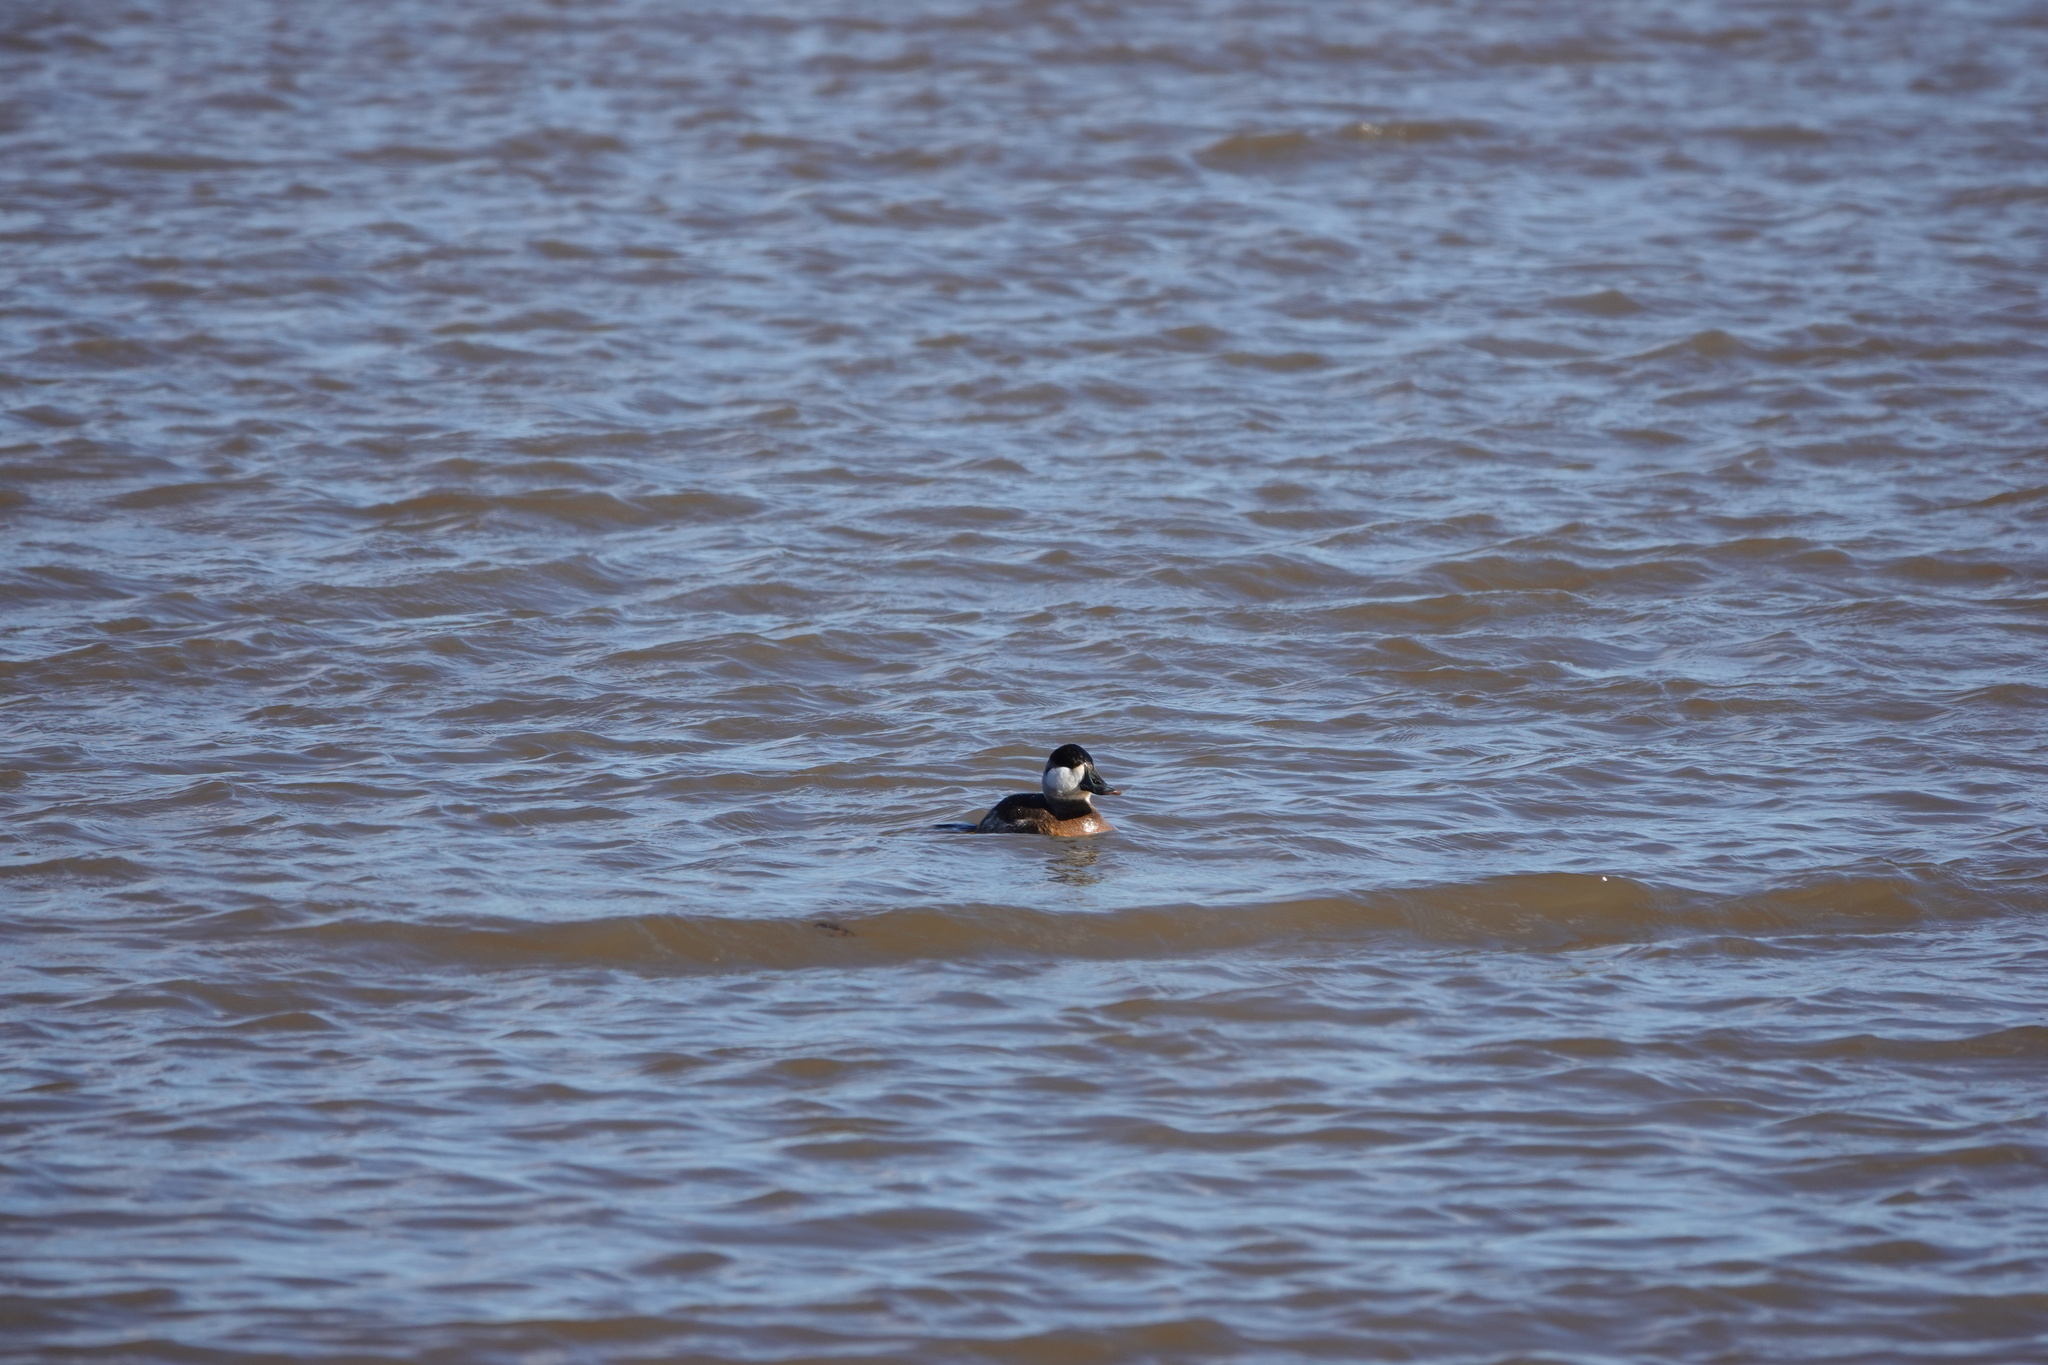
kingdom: Animalia
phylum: Chordata
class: Aves
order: Anseriformes
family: Anatidae
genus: Oxyura
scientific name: Oxyura jamaicensis
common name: Ruddy duck
